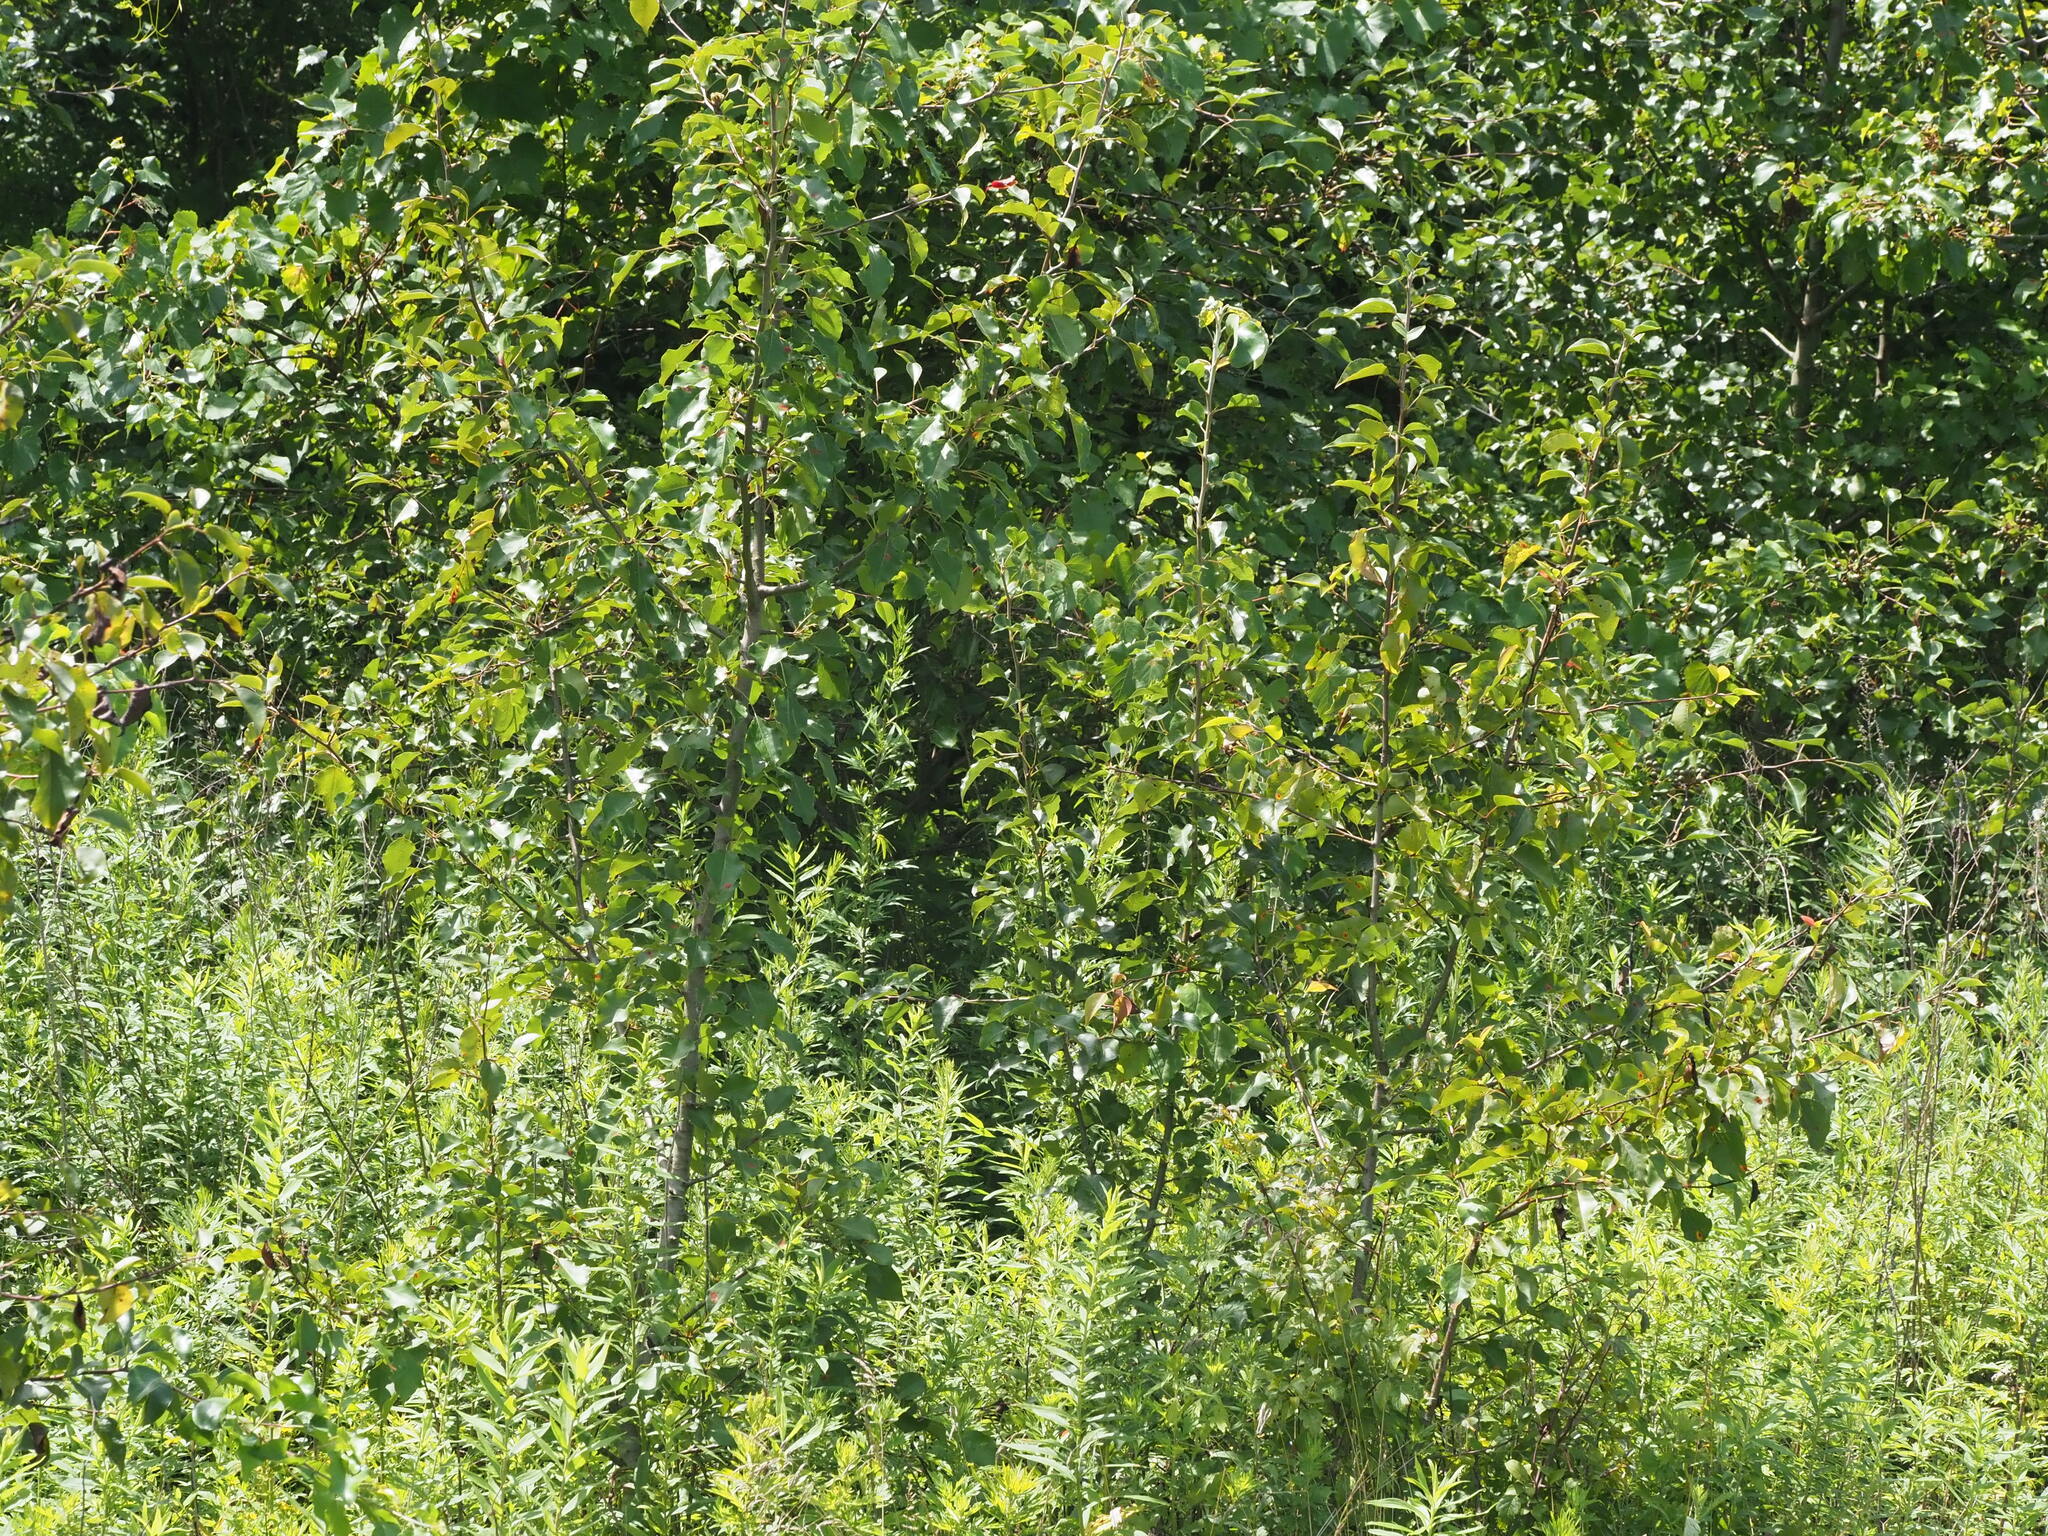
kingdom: Plantae
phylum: Tracheophyta
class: Magnoliopsida
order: Rosales
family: Rosaceae
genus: Pyrus
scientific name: Pyrus calleryana
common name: Callery pear
